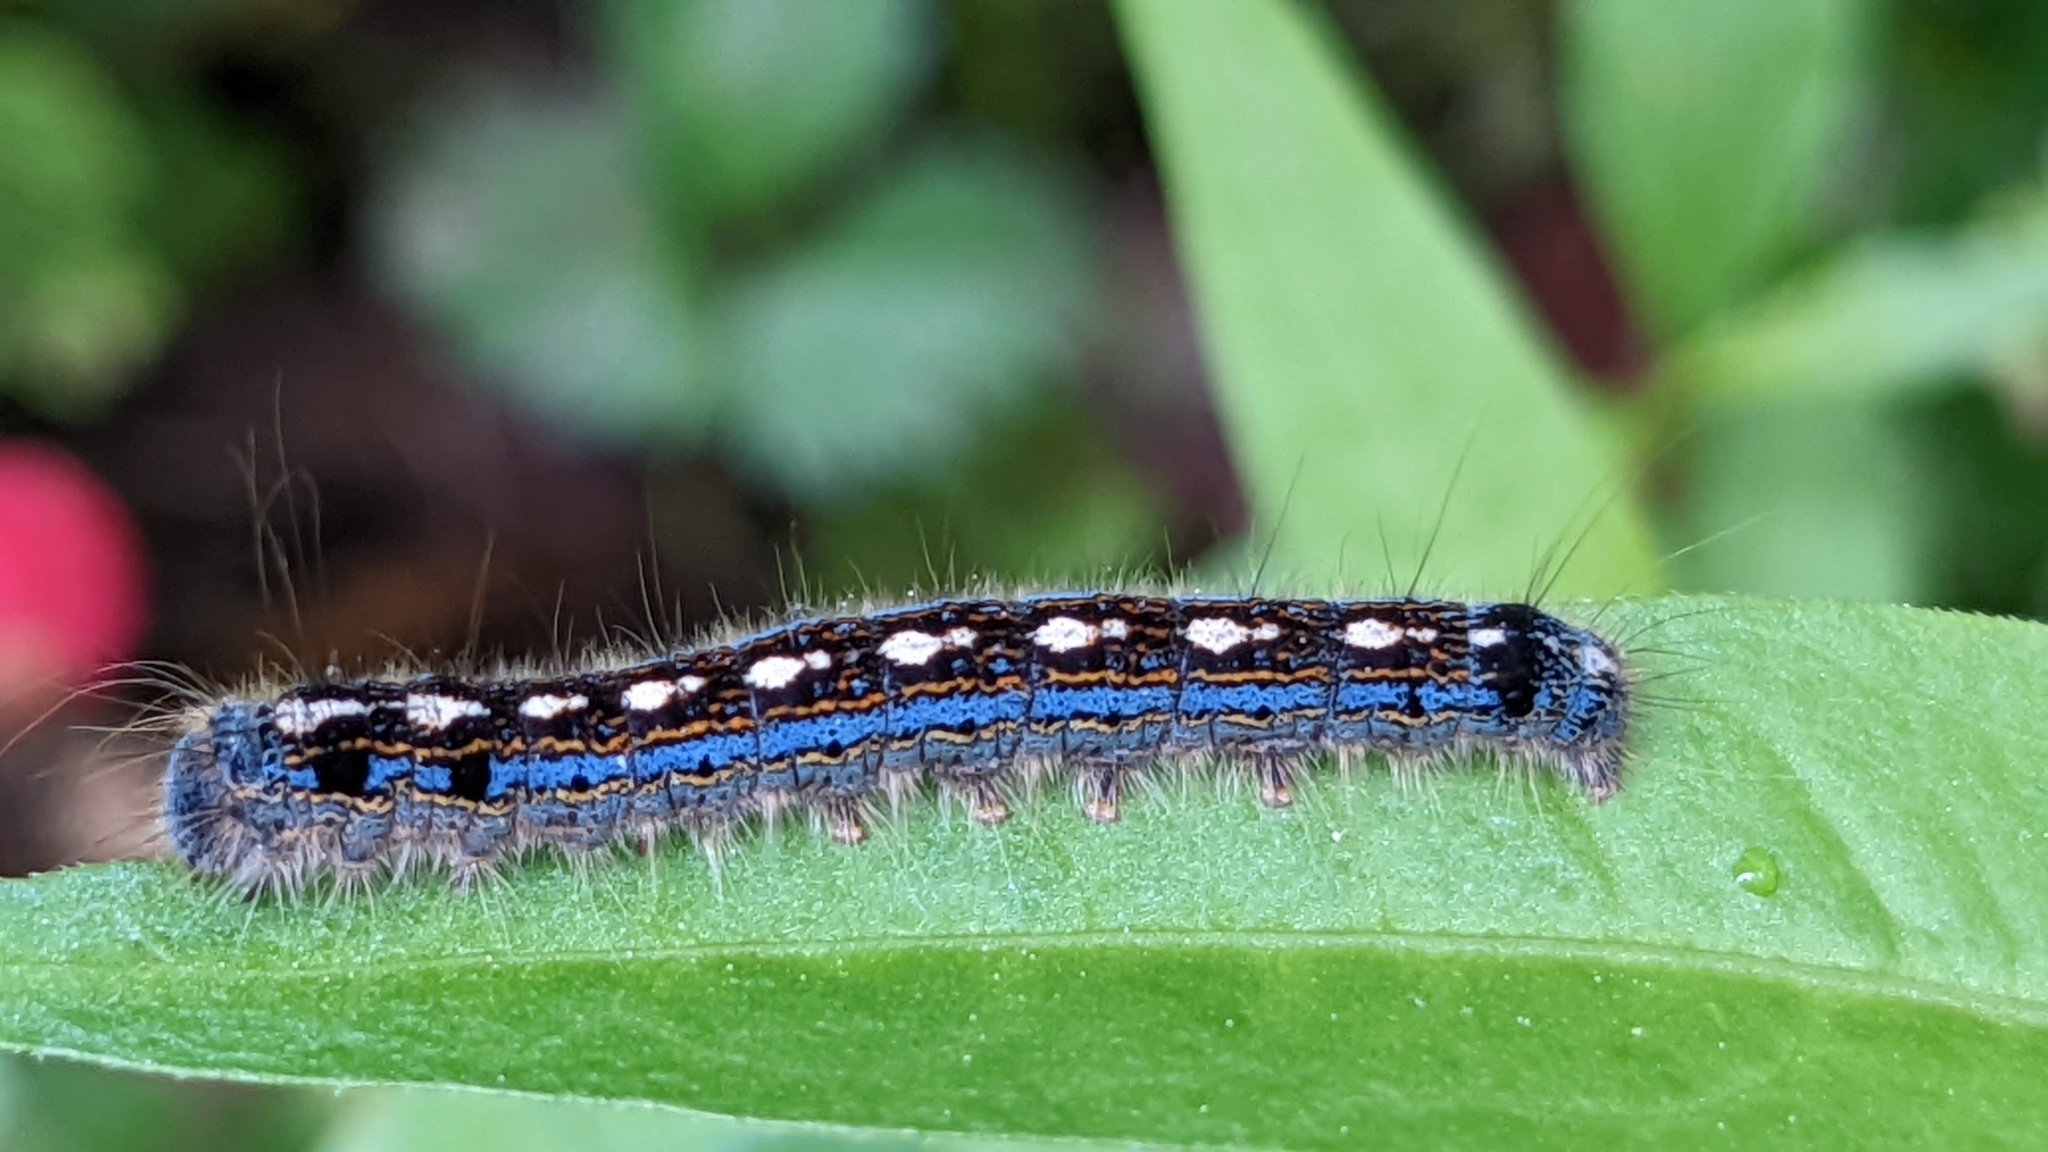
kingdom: Animalia
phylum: Arthropoda
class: Insecta
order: Lepidoptera
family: Lasiocampidae
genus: Malacosoma
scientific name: Malacosoma disstria
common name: Forest tent caterpillar
